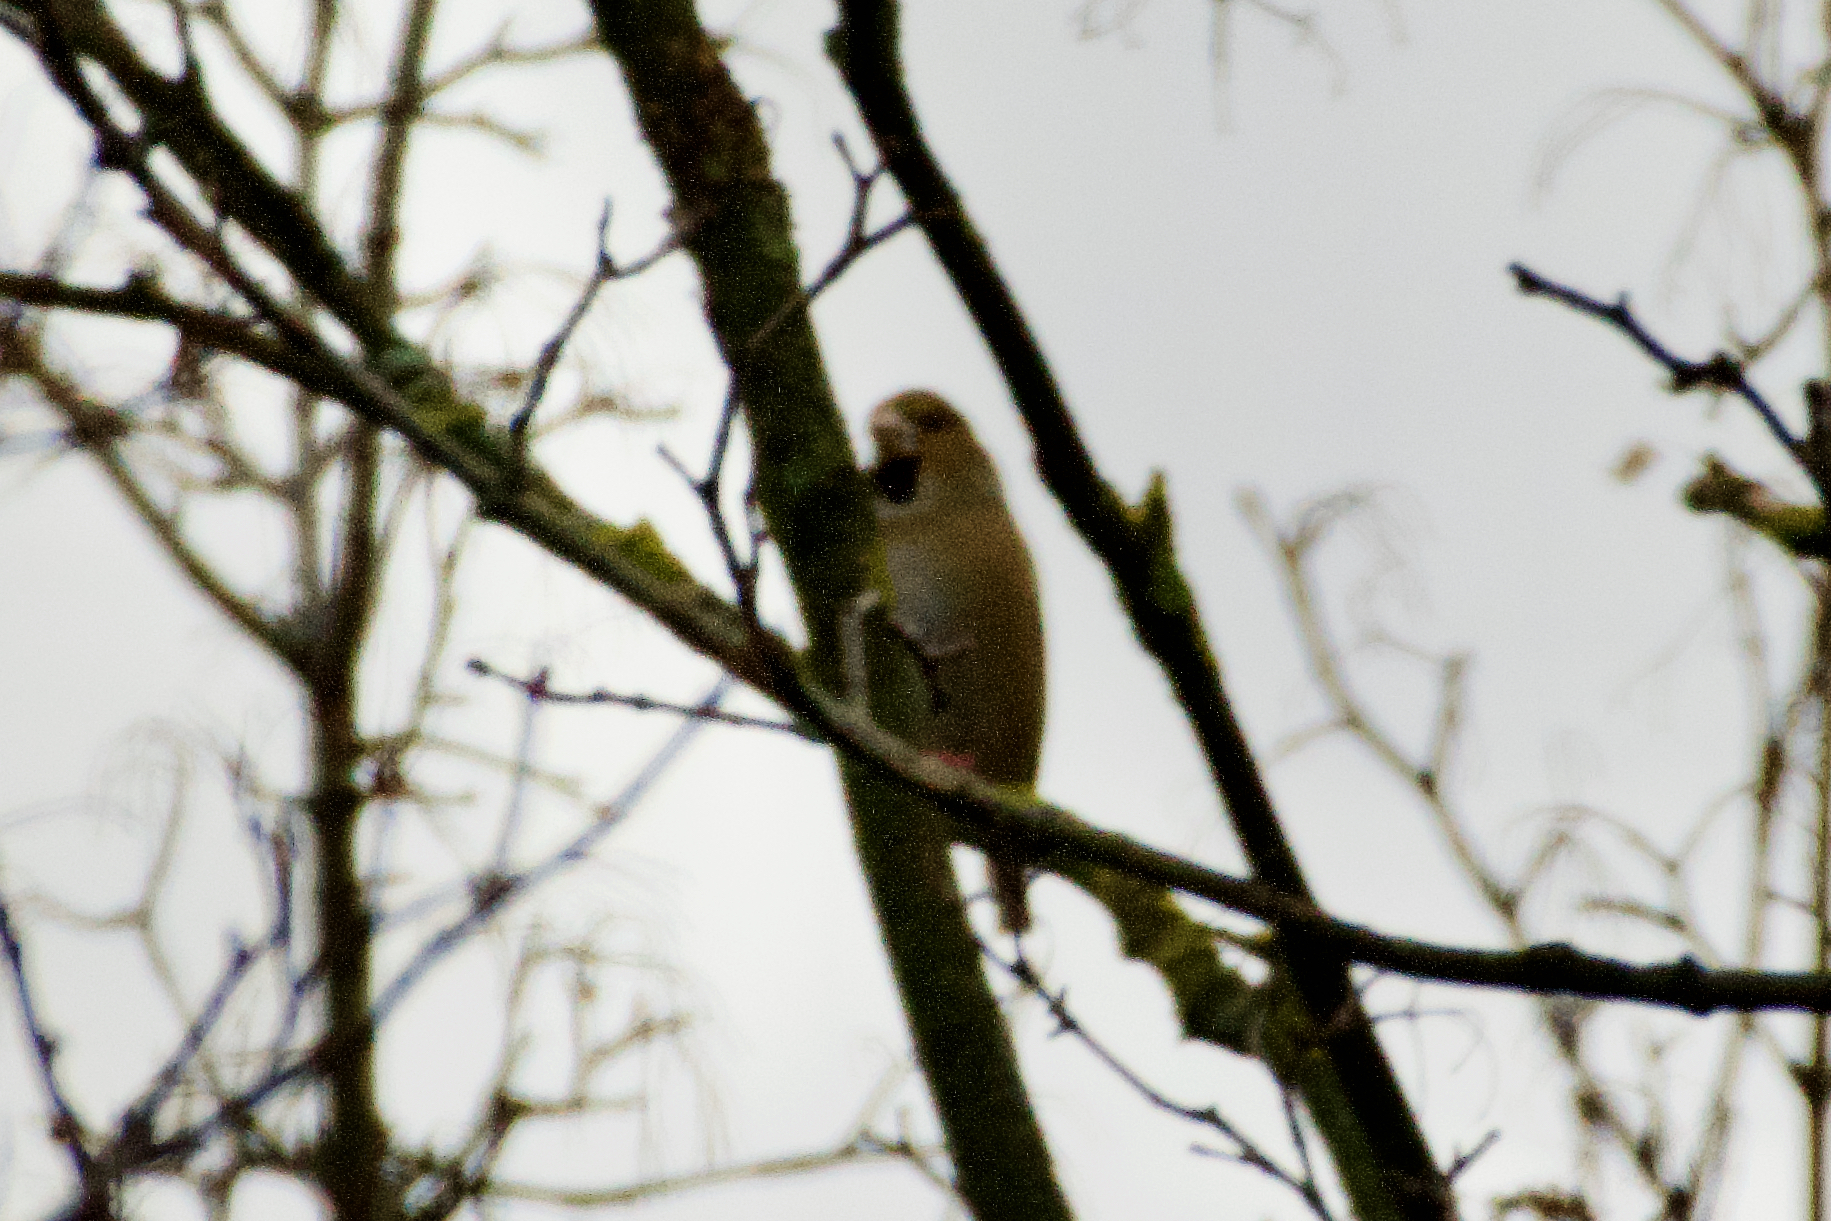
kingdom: Animalia
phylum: Chordata
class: Aves
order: Passeriformes
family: Fringillidae
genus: Coccothraustes
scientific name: Coccothraustes coccothraustes
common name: Hawfinch
